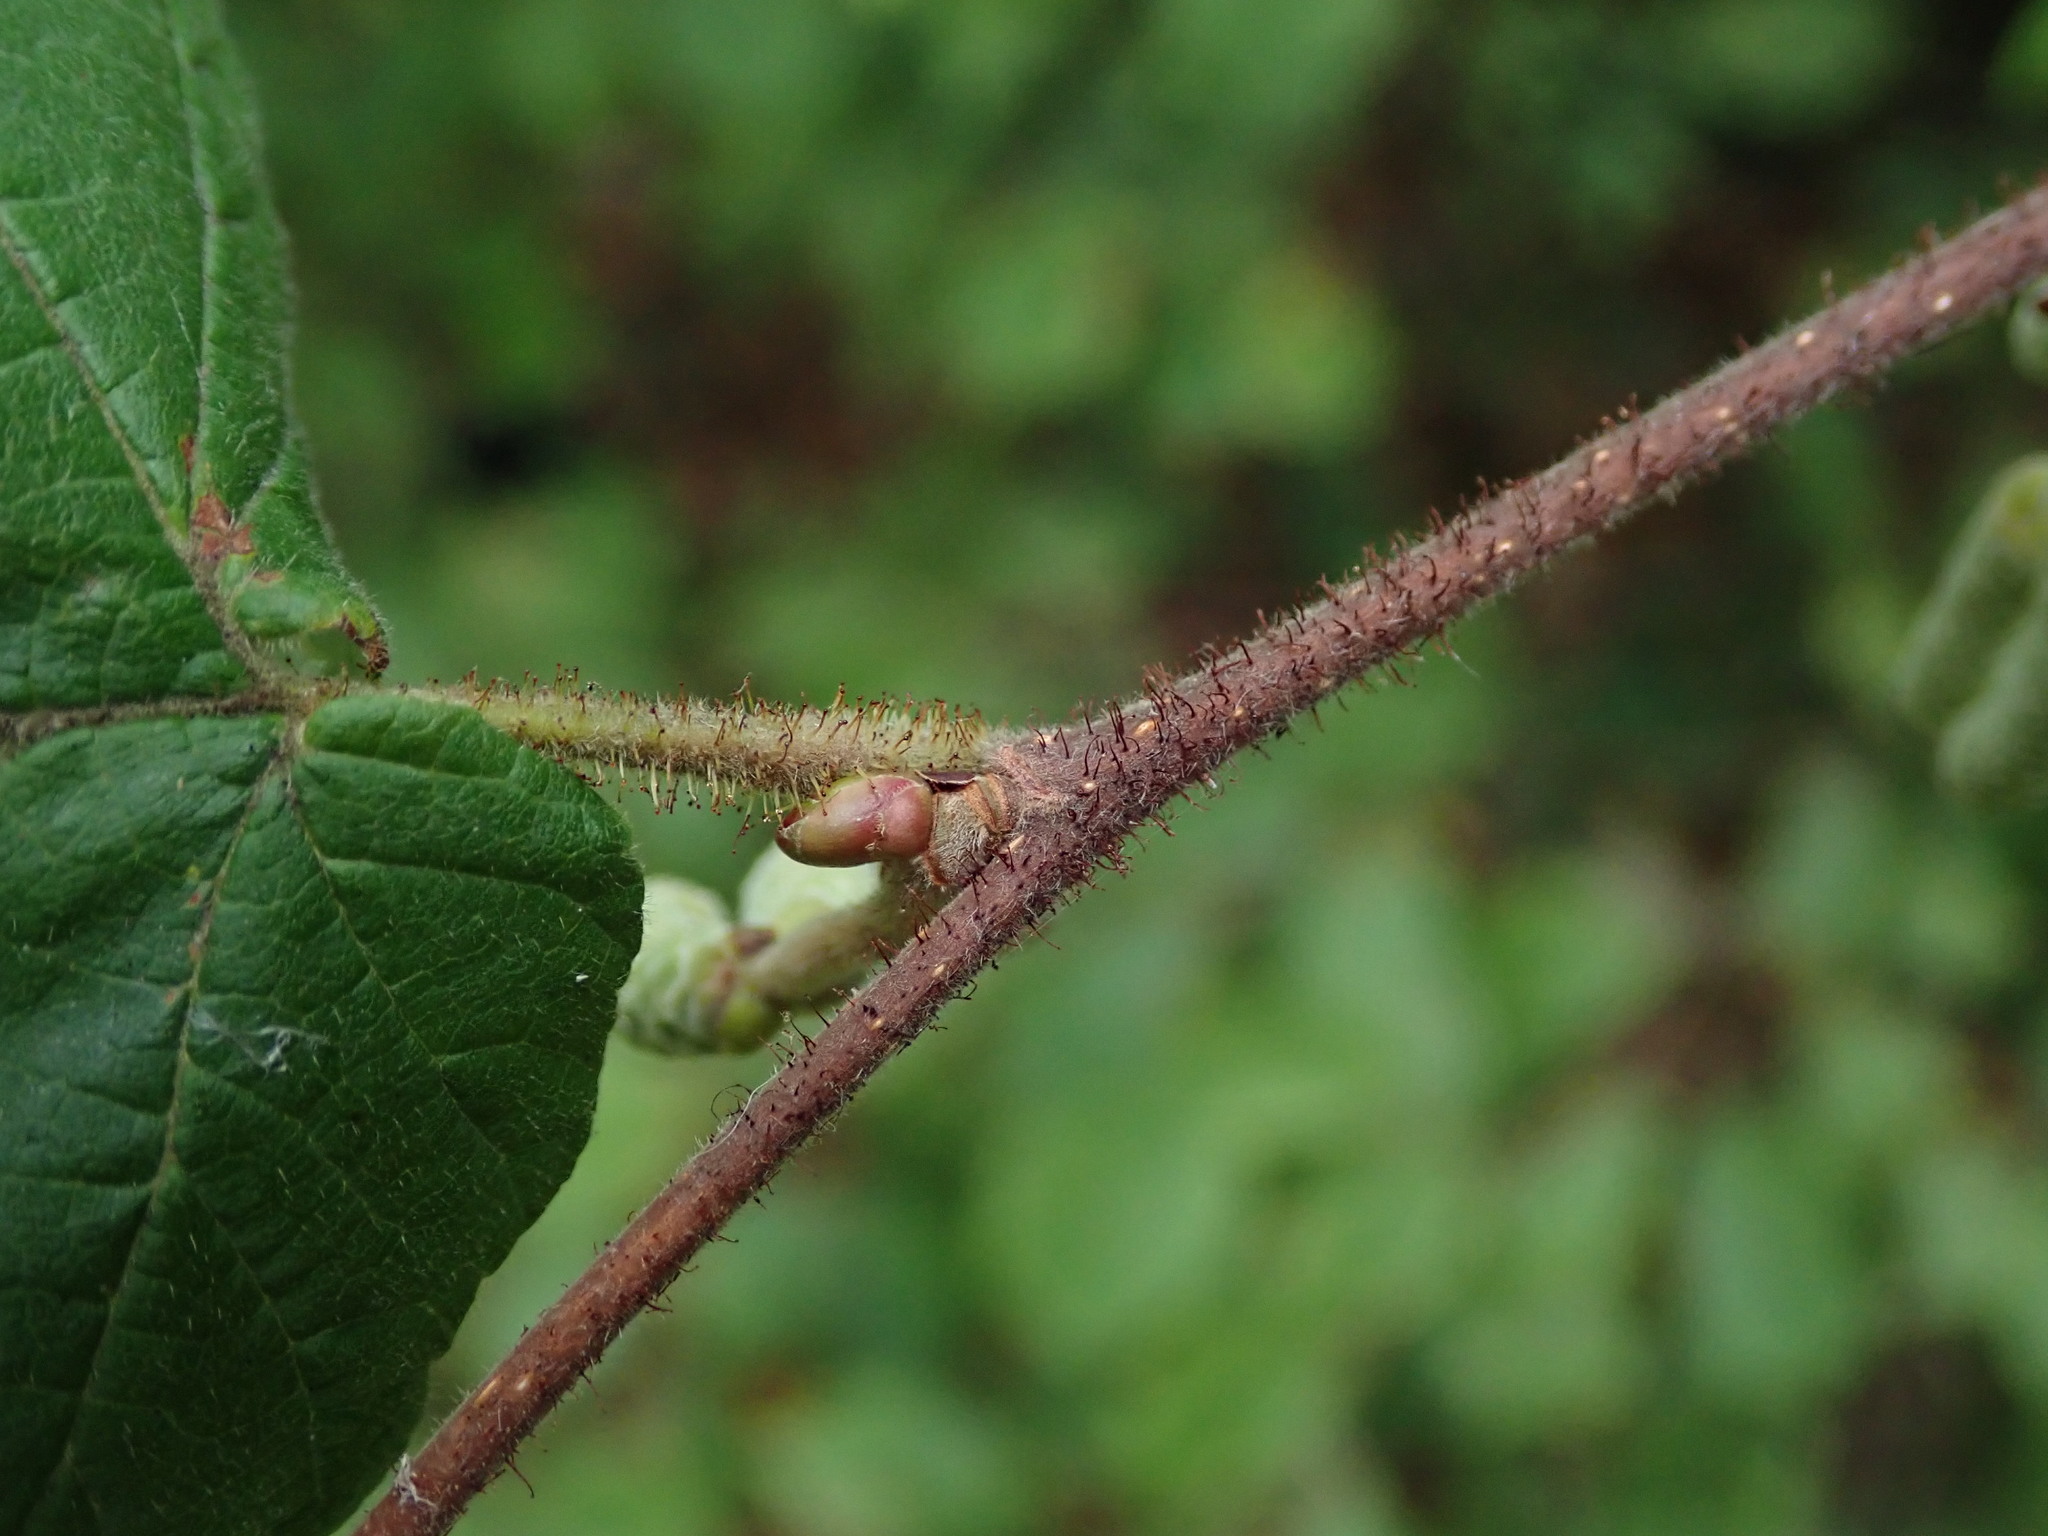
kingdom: Plantae
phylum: Tracheophyta
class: Magnoliopsida
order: Fagales
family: Betulaceae
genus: Corylus
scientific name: Corylus avellana
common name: European hazel
